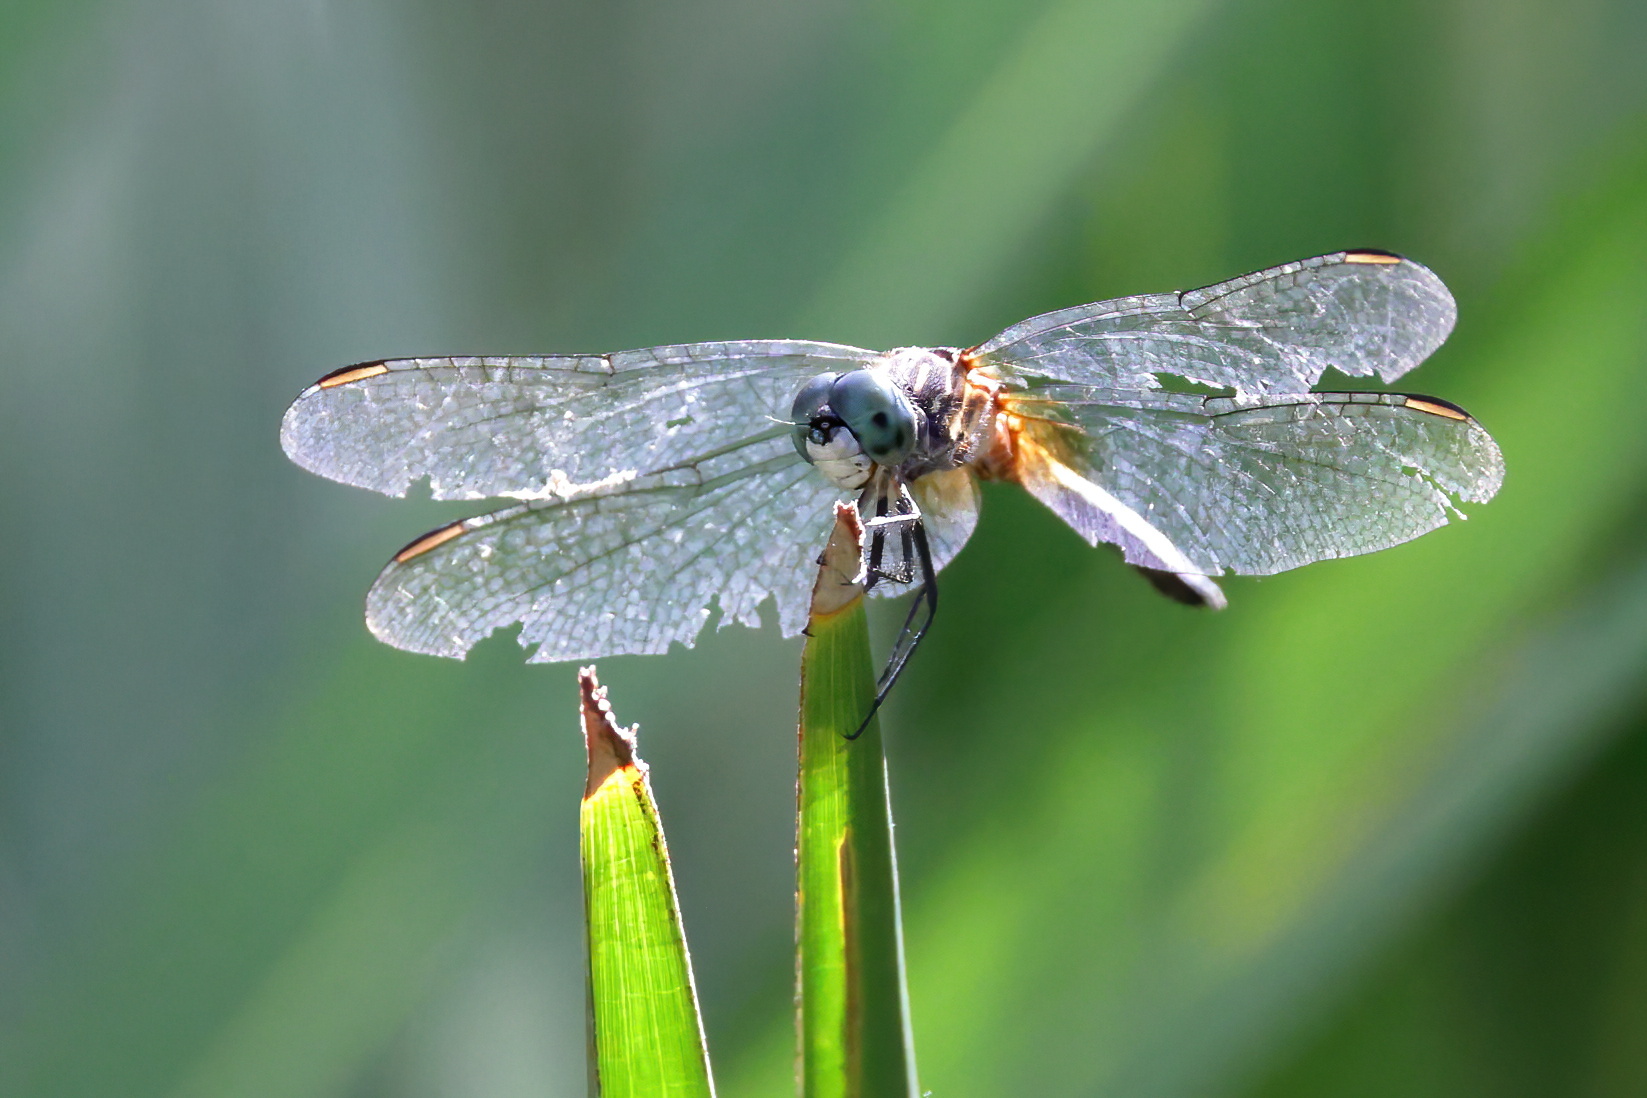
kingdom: Animalia
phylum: Arthropoda
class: Insecta
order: Odonata
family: Libellulidae
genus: Pachydiplax
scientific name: Pachydiplax longipennis
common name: Blue dasher
